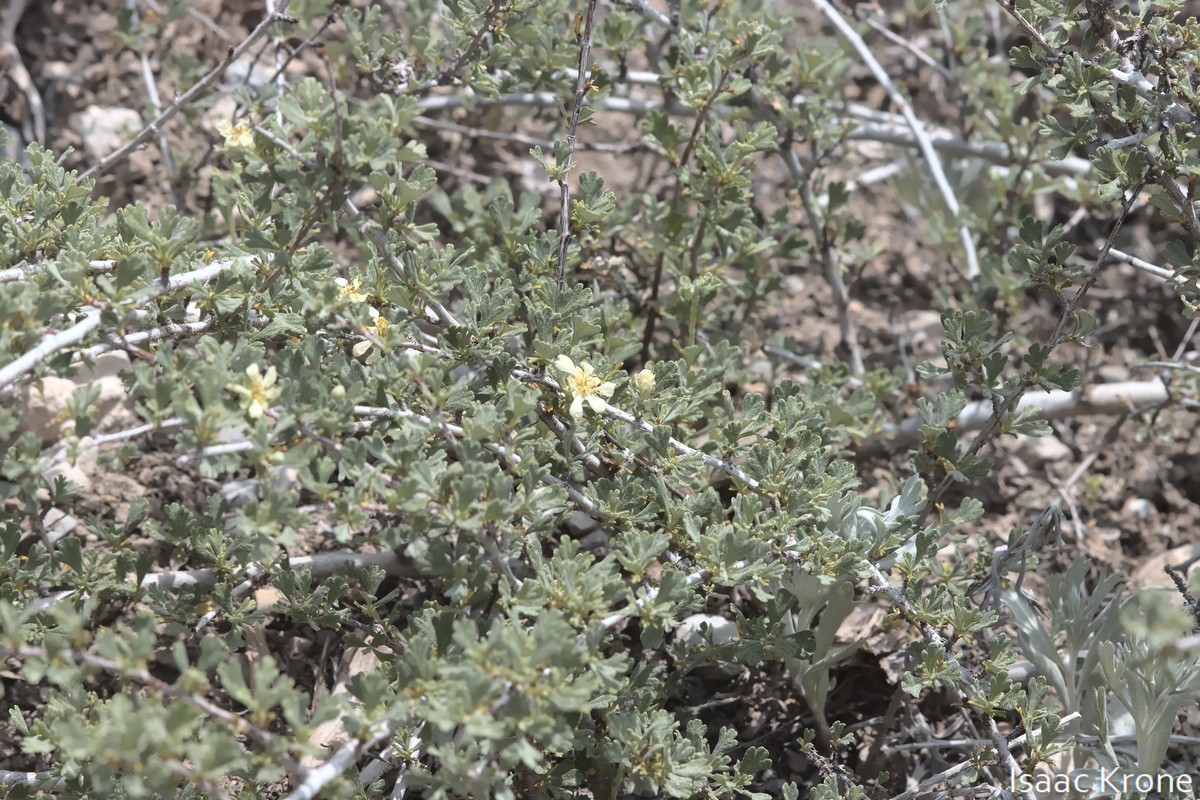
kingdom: Plantae
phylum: Tracheophyta
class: Magnoliopsida
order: Rosales
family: Rosaceae
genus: Purshia
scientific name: Purshia tridentata
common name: Antelope bitterbrush
